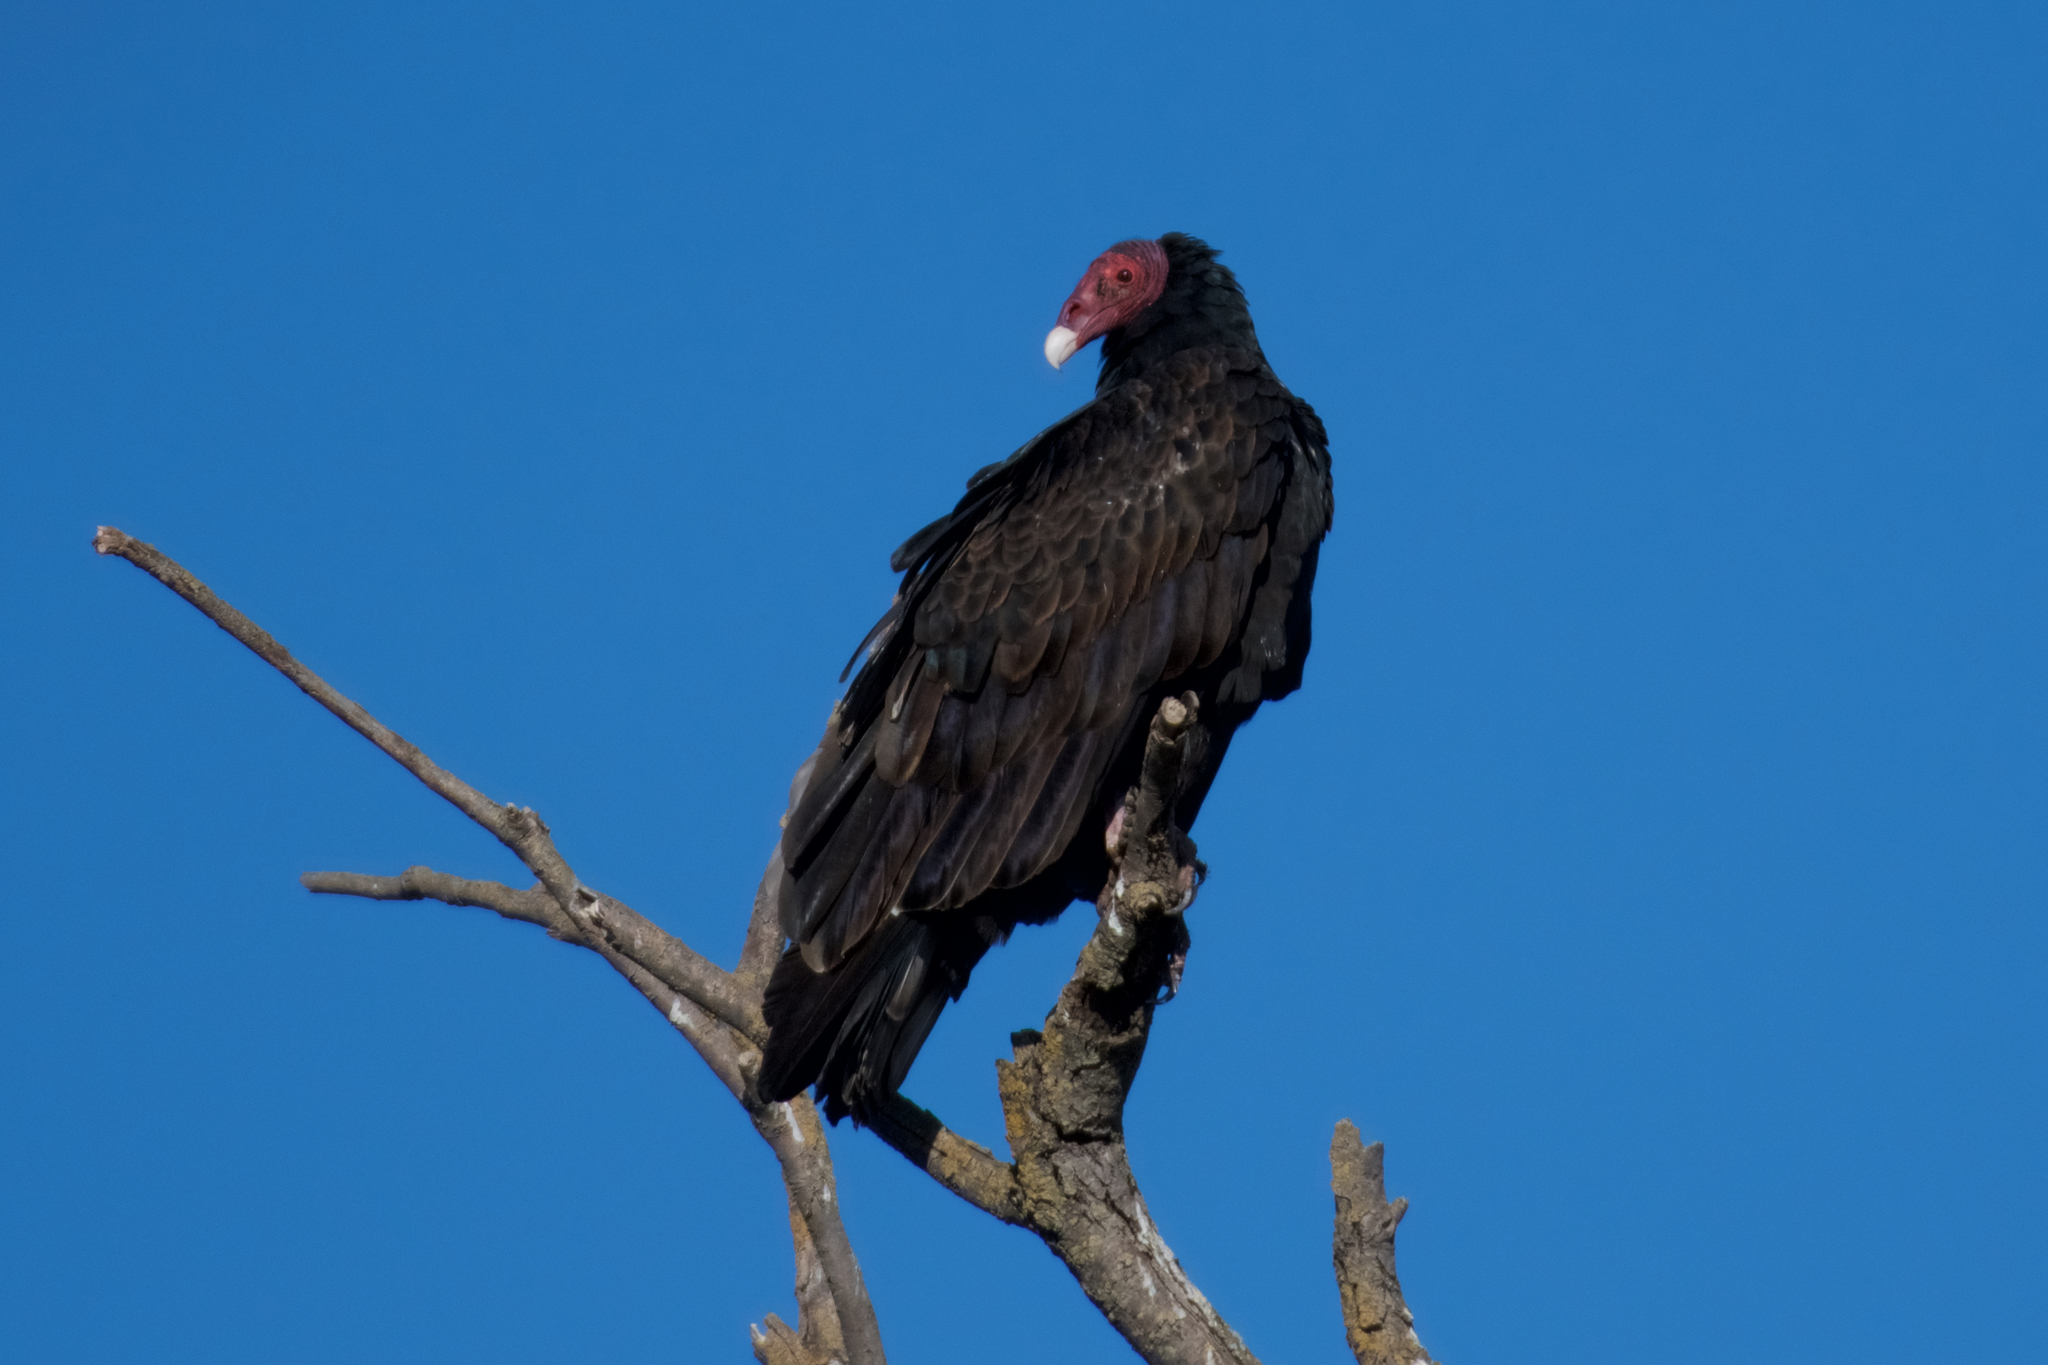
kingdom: Animalia
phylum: Chordata
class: Aves
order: Accipitriformes
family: Cathartidae
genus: Cathartes
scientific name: Cathartes aura
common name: Turkey vulture
